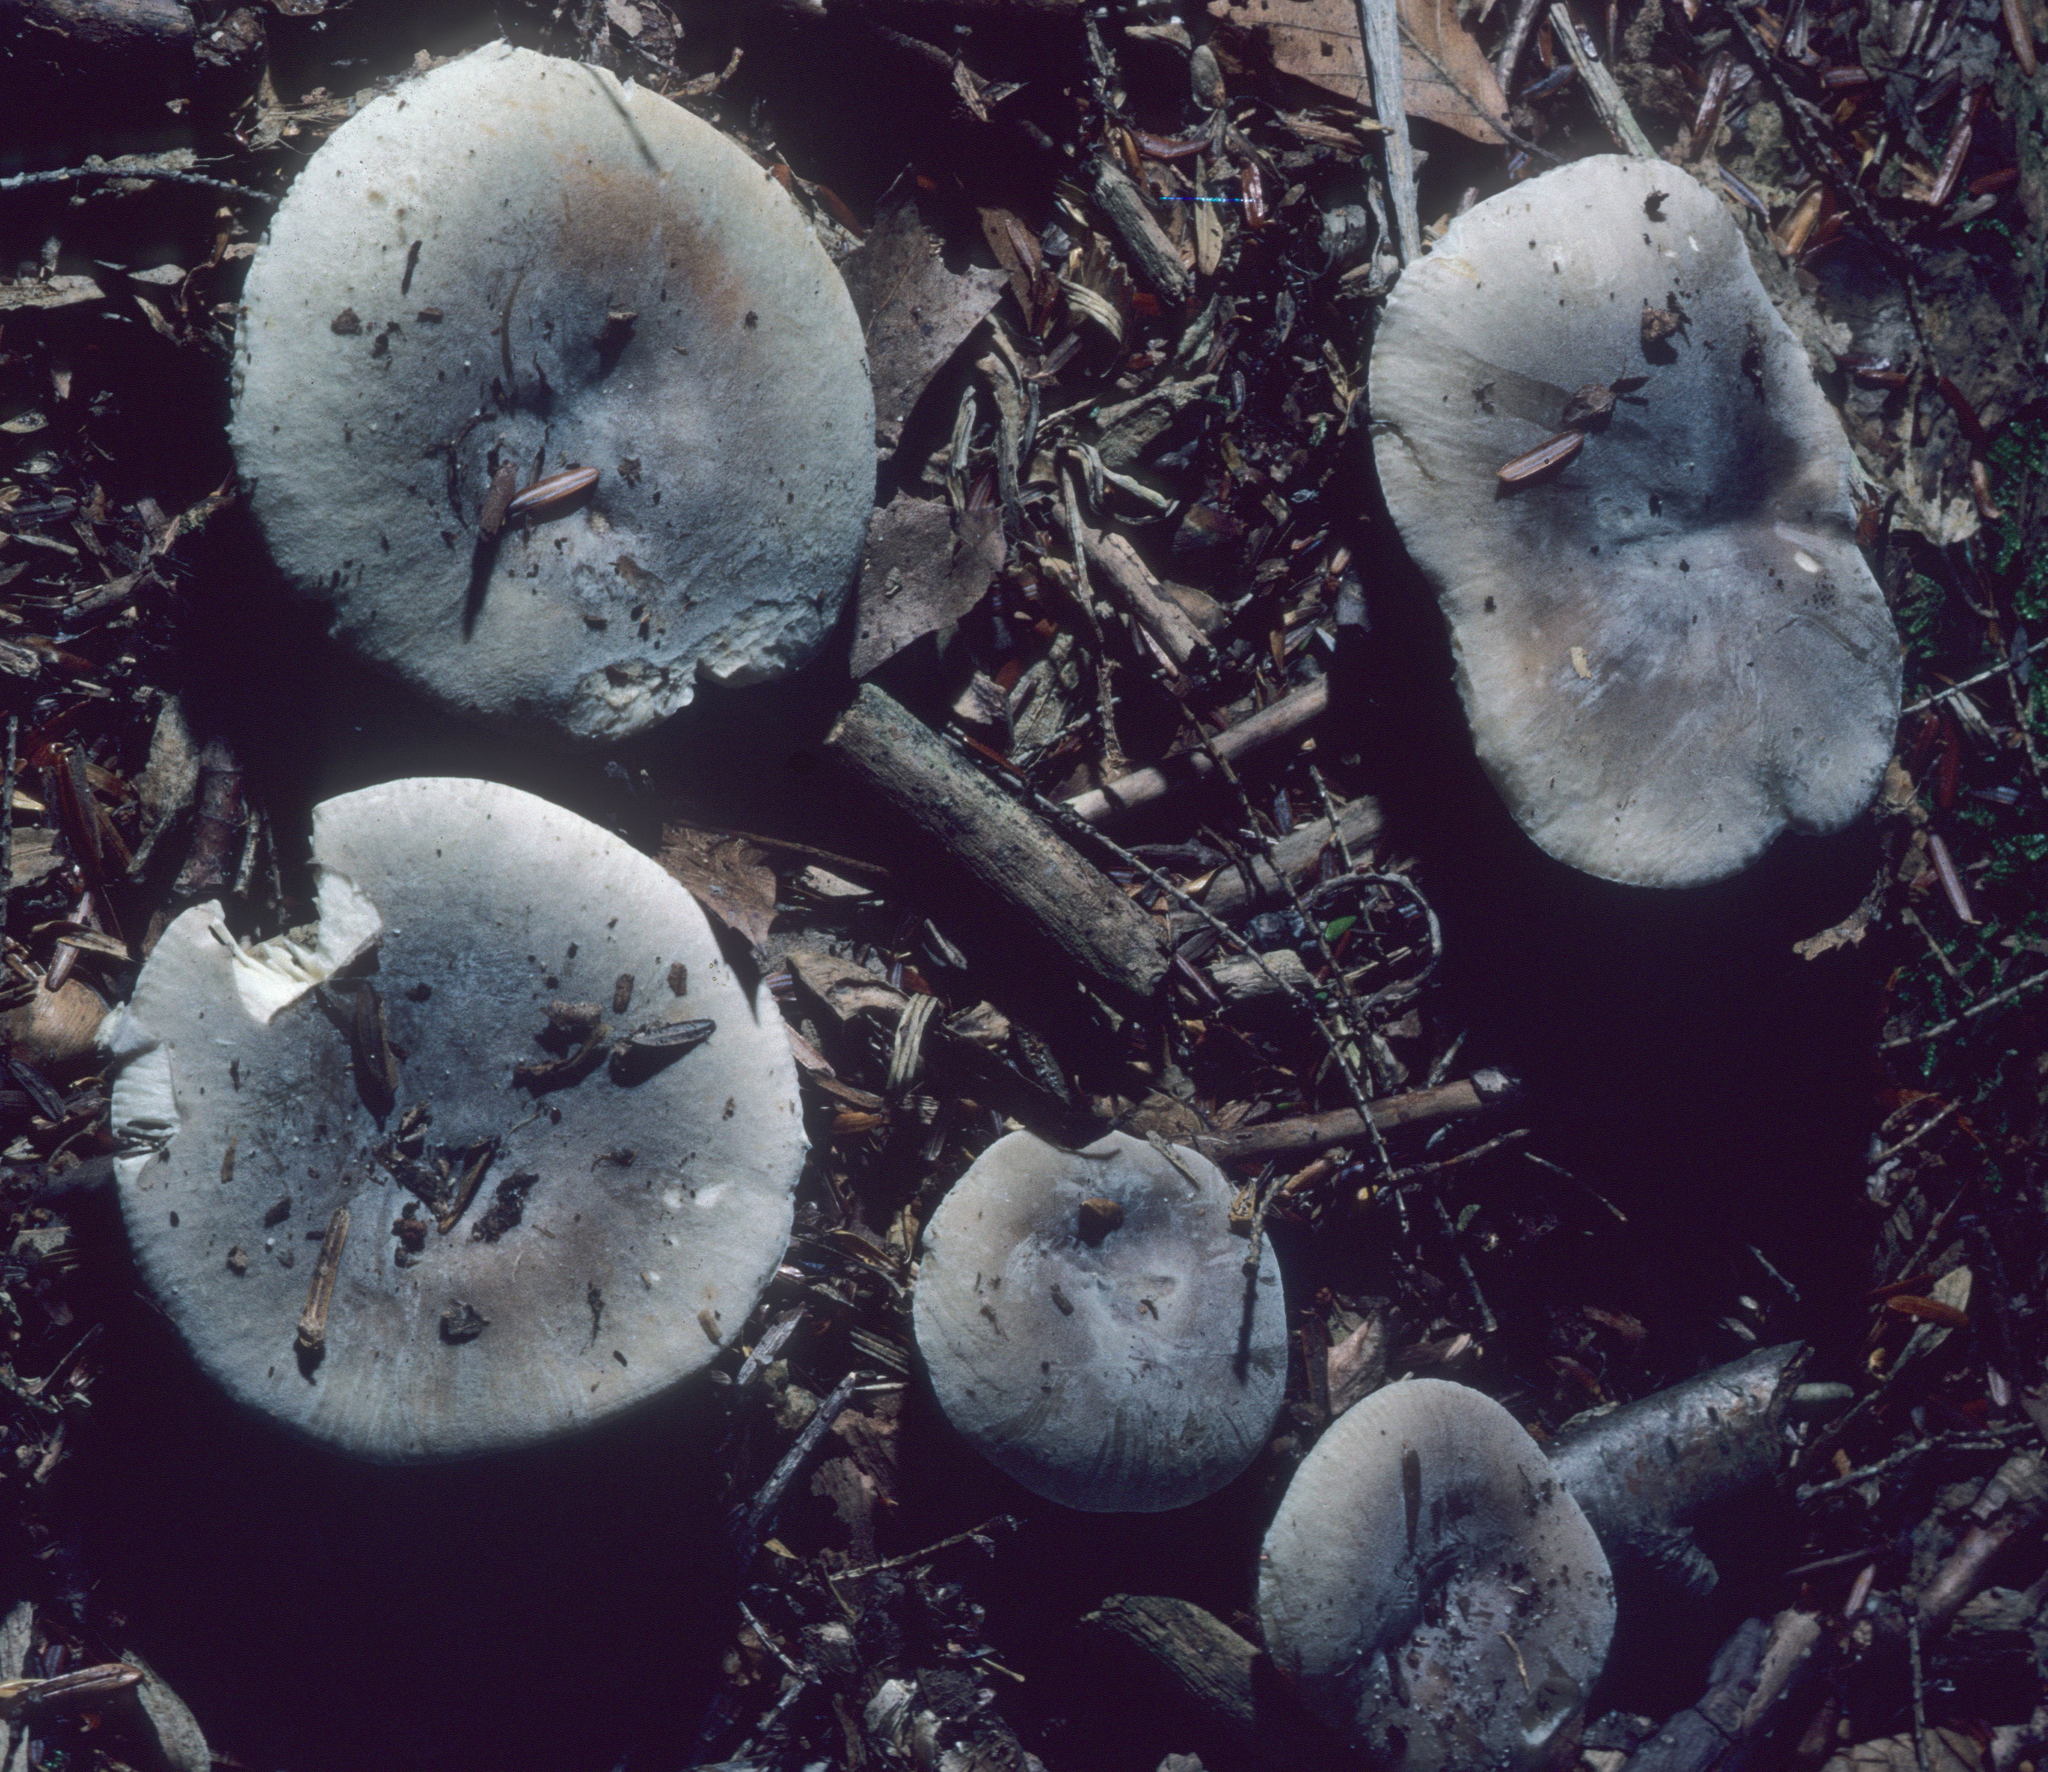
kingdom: Fungi
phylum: Basidiomycota
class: Agaricomycetes
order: Russulales
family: Russulaceae
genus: Russula
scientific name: Russula modesta
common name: Modest russula
